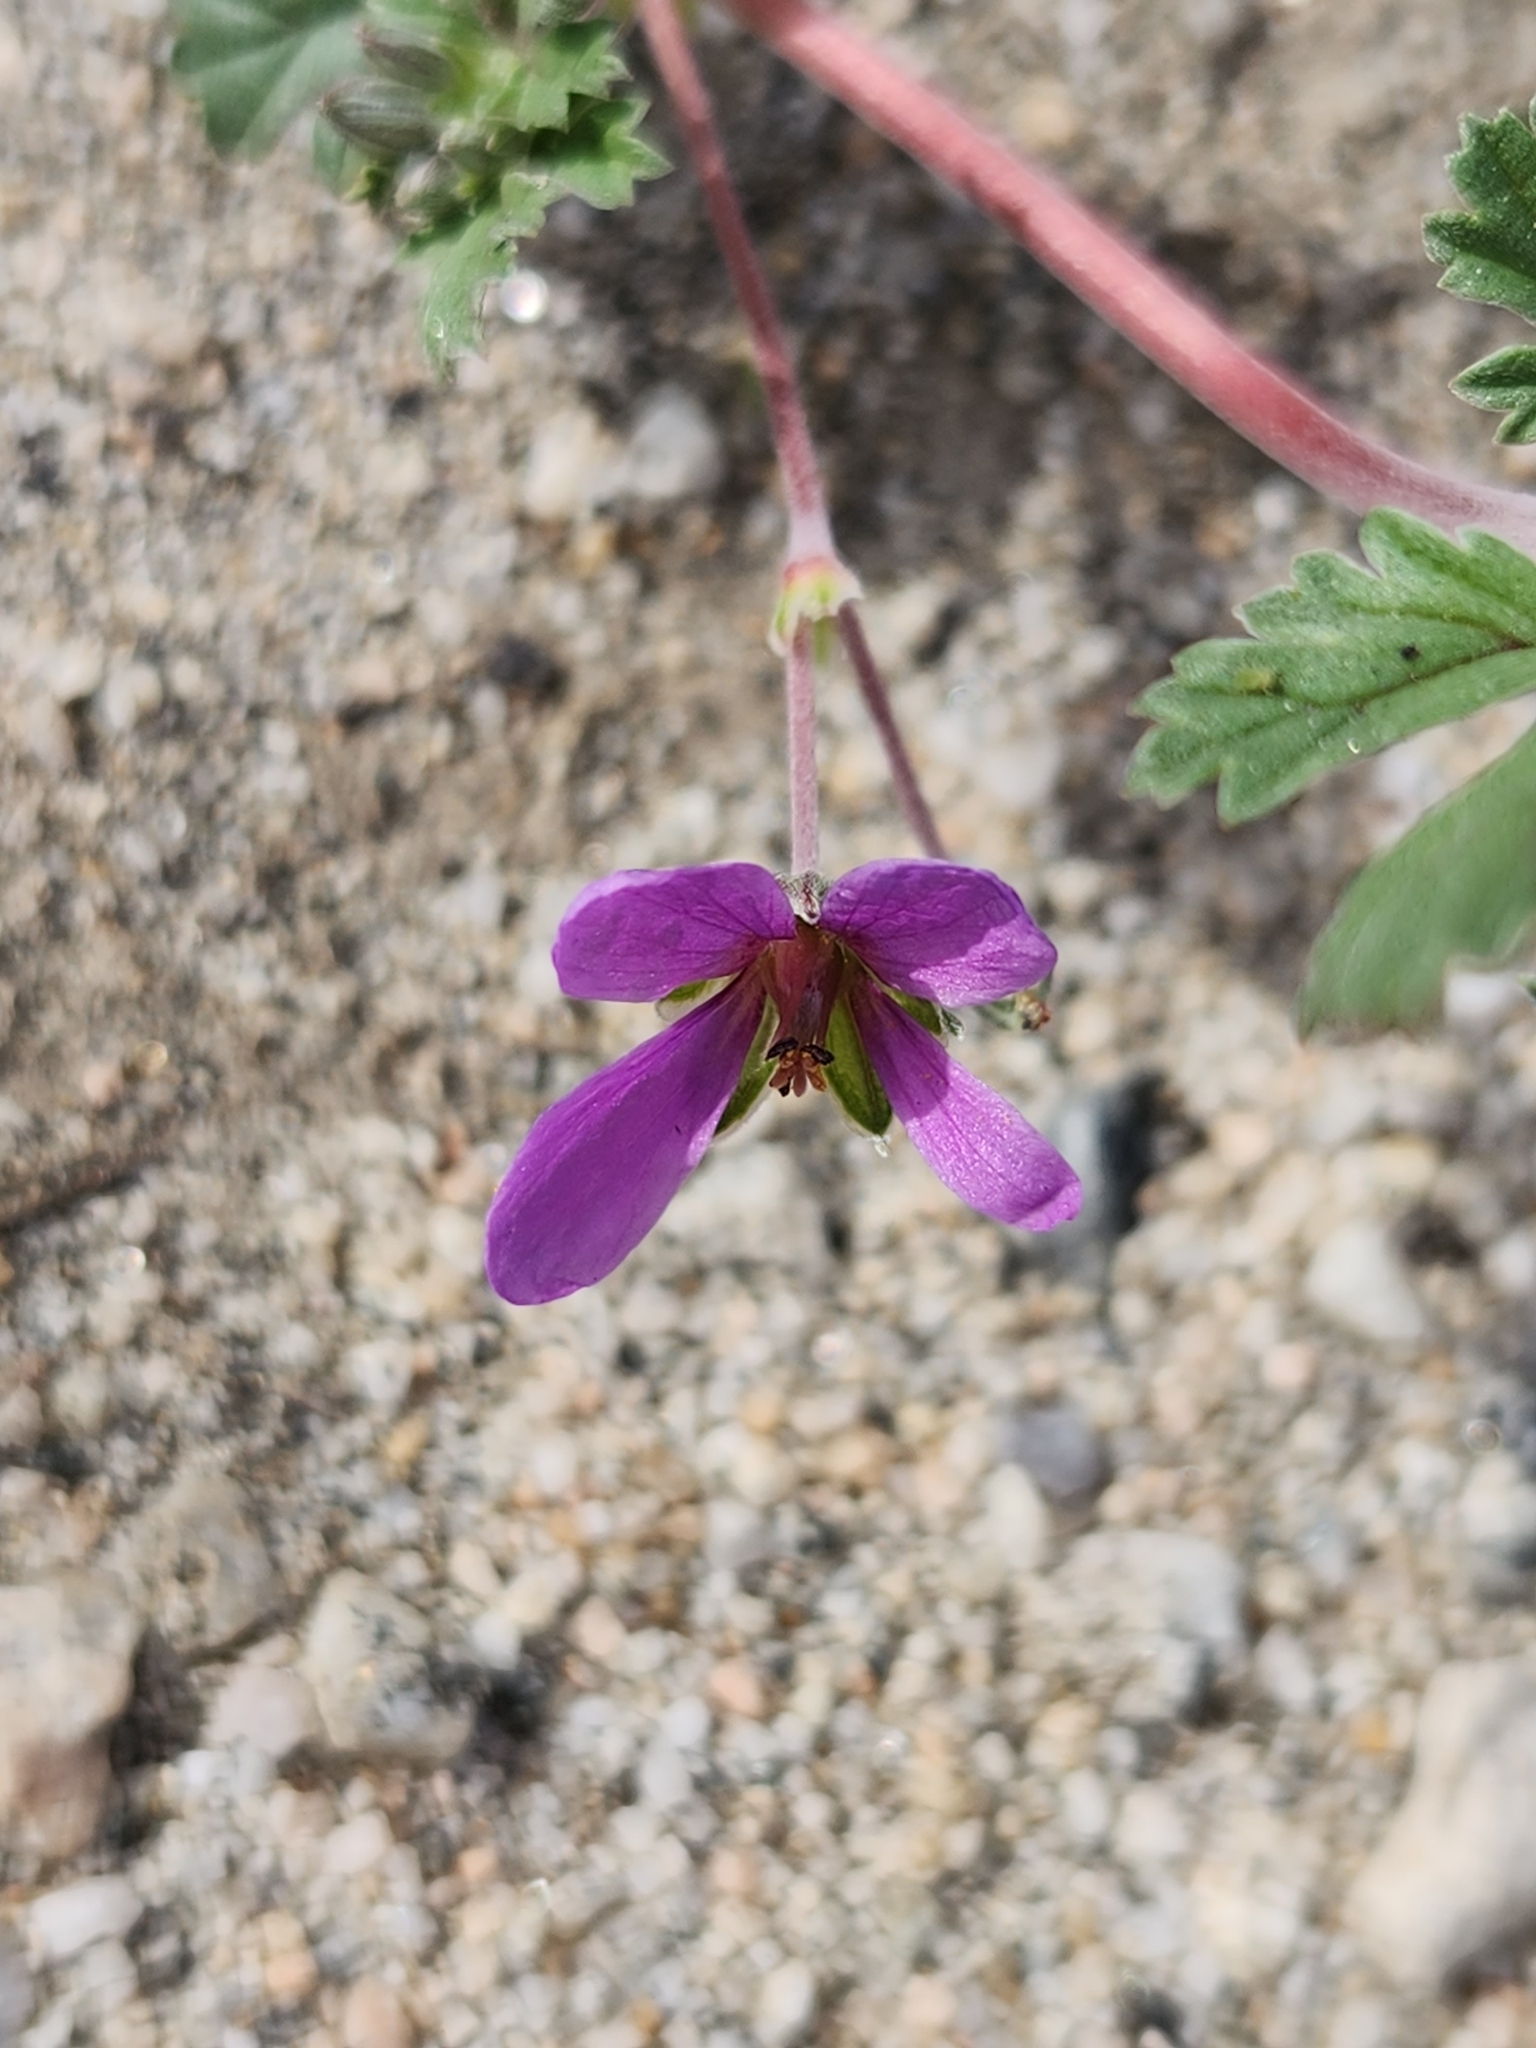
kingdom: Plantae
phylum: Tracheophyta
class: Magnoliopsida
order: Geraniales
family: Geraniaceae
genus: Erodium
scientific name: Erodium texanum
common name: Texas stork's-bill
